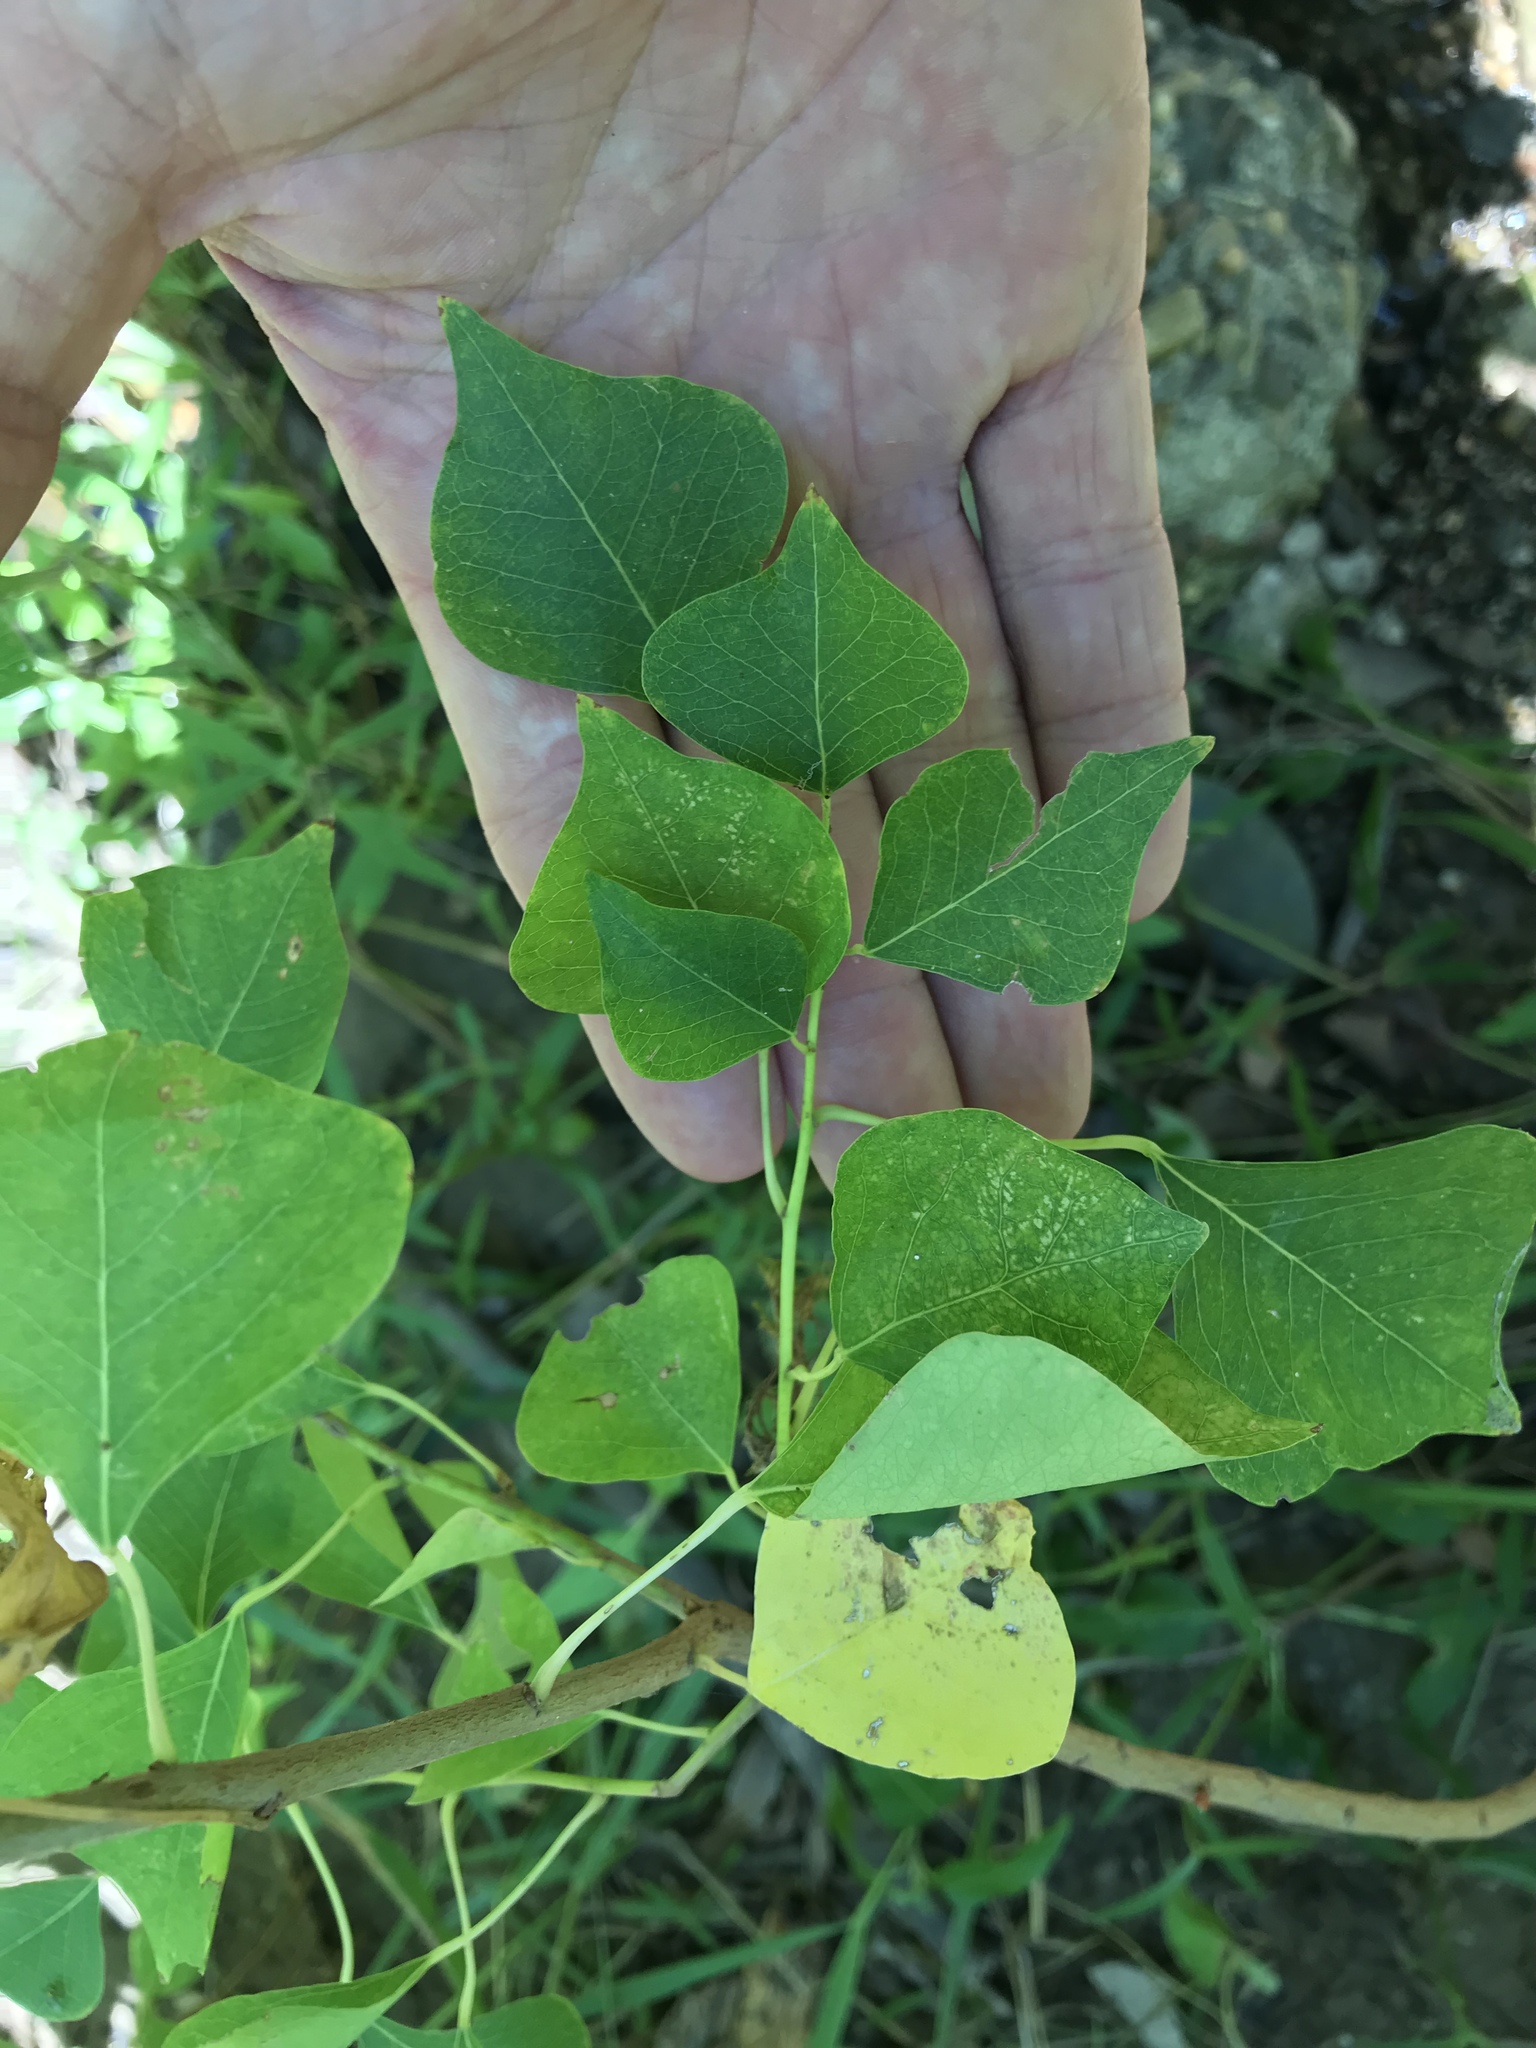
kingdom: Plantae
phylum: Tracheophyta
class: Magnoliopsida
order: Malpighiales
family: Euphorbiaceae
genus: Triadica
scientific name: Triadica sebifera
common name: Chinese tallow
